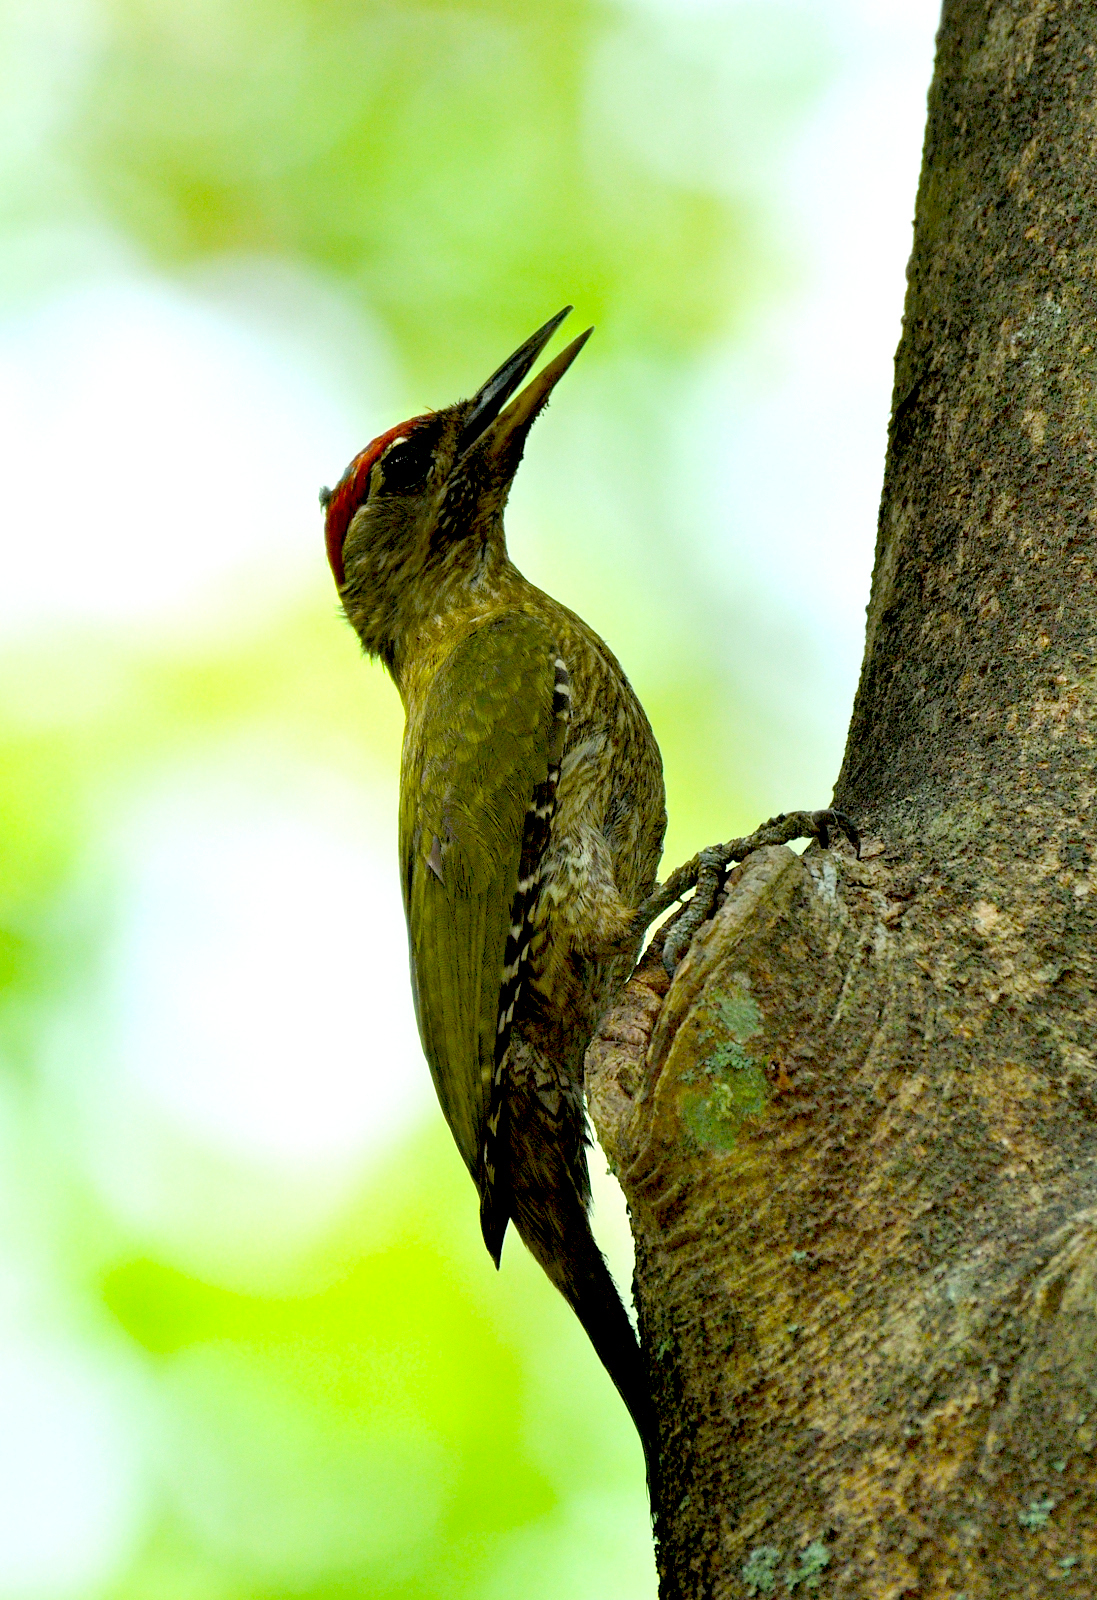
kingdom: Animalia
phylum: Chordata
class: Aves
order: Piciformes
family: Picidae
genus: Picus
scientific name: Picus xanthopygaeus
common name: Streak-throated woodpecker
